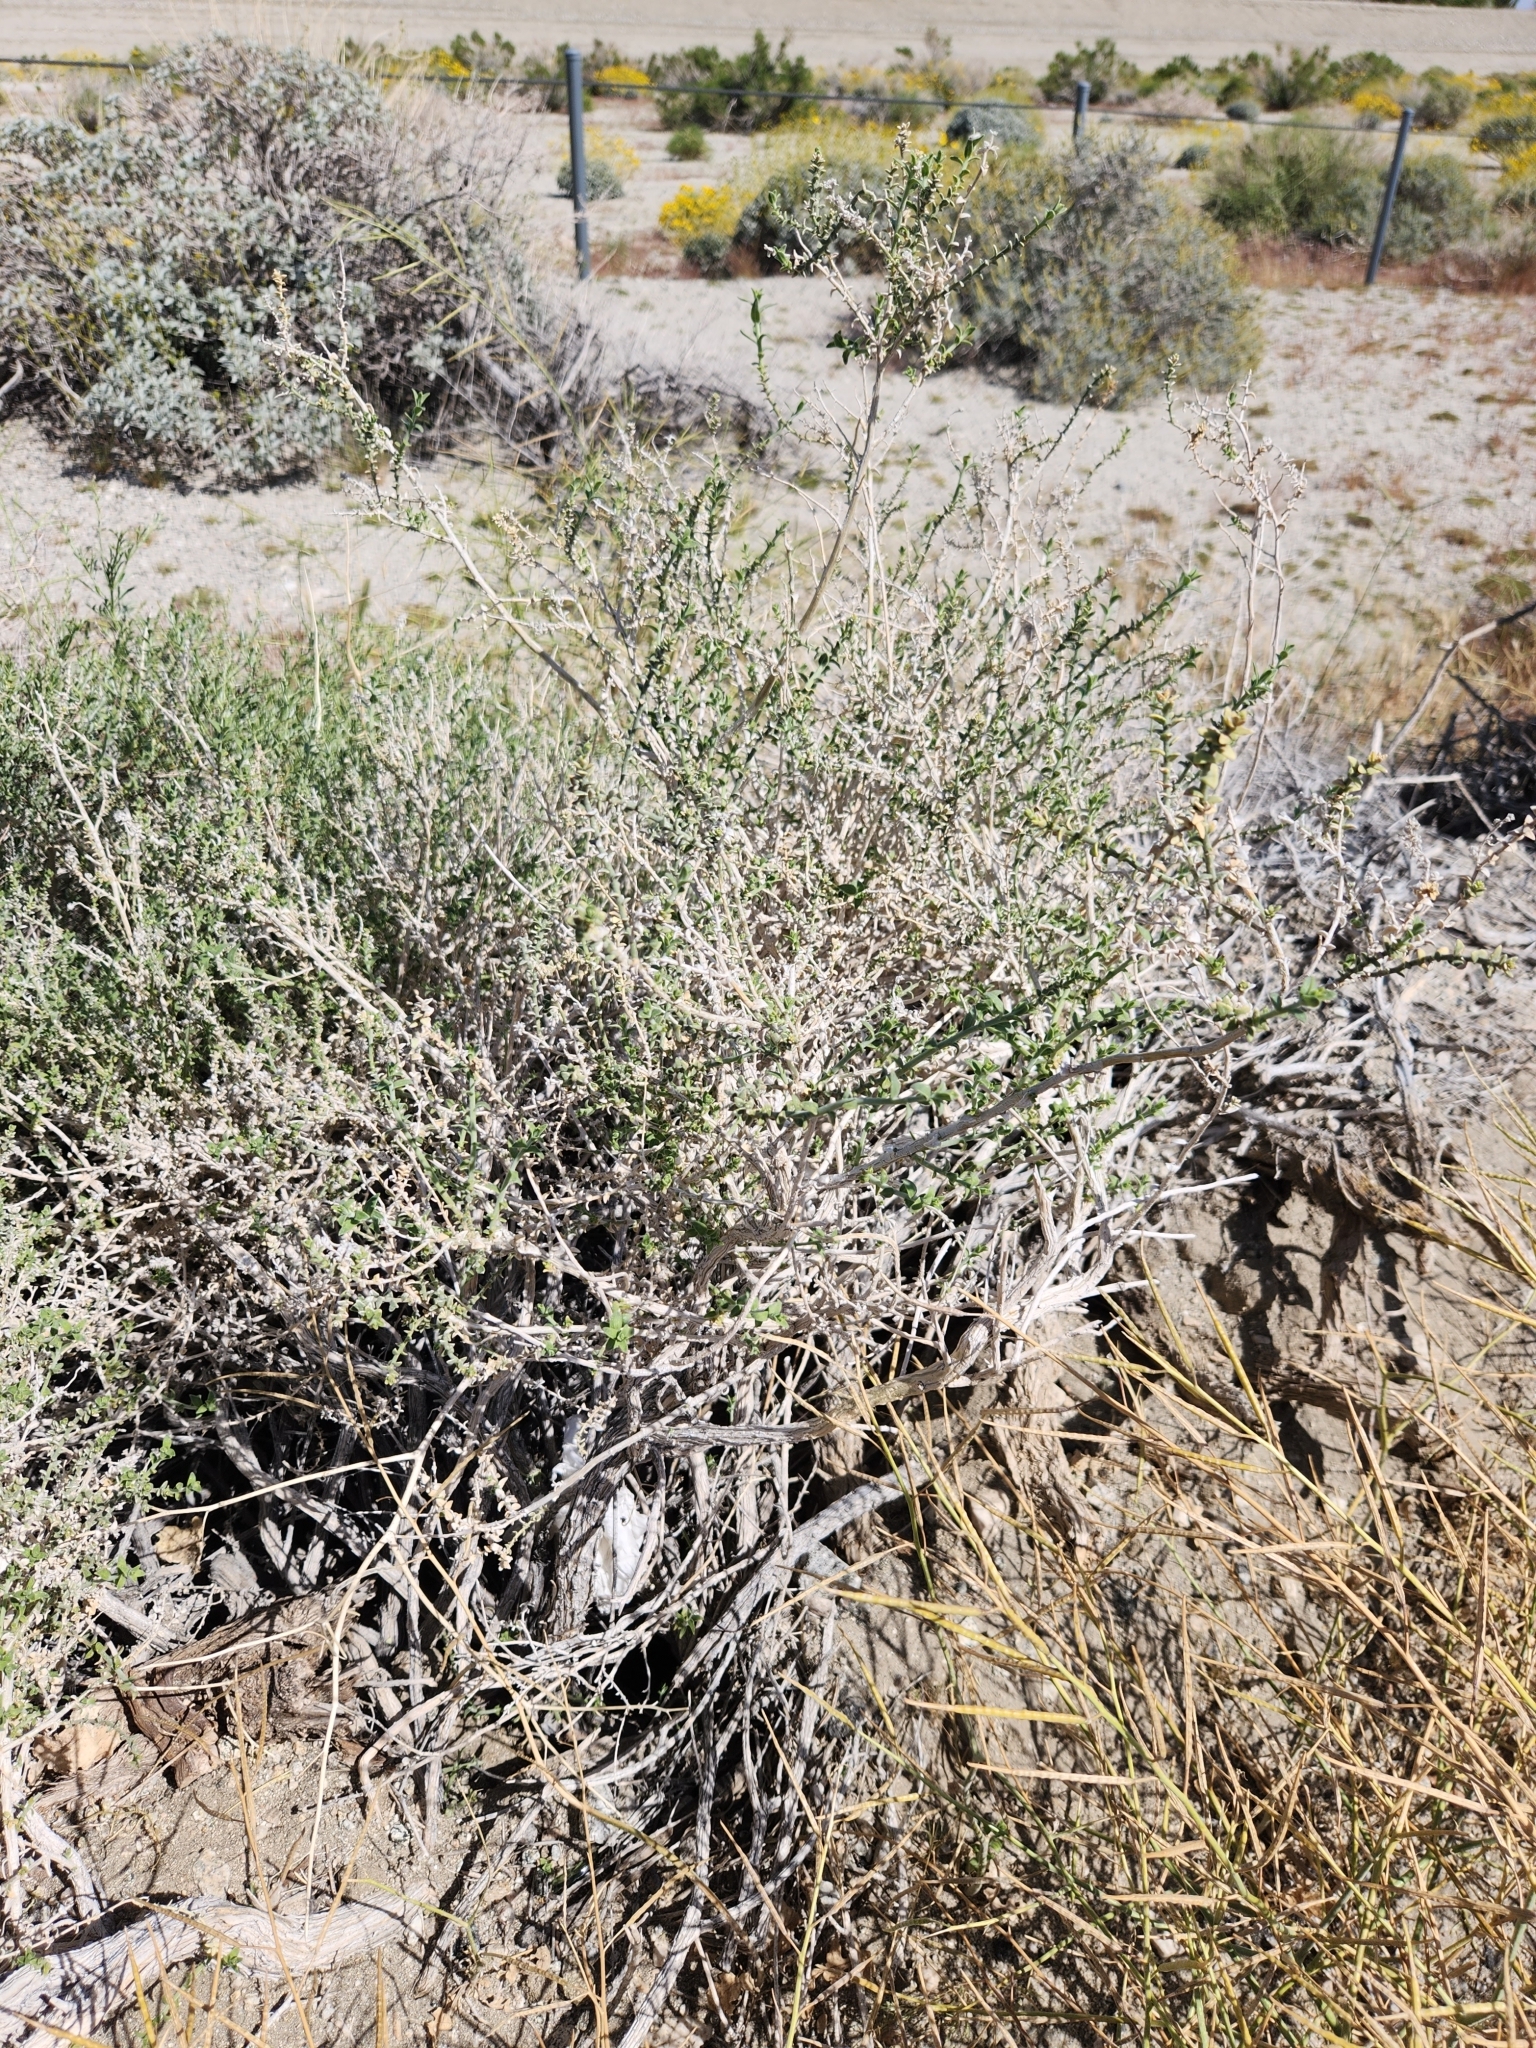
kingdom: Plantae
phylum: Tracheophyta
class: Magnoliopsida
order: Cornales
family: Loasaceae
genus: Petalonyx
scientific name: Petalonyx thurberi
